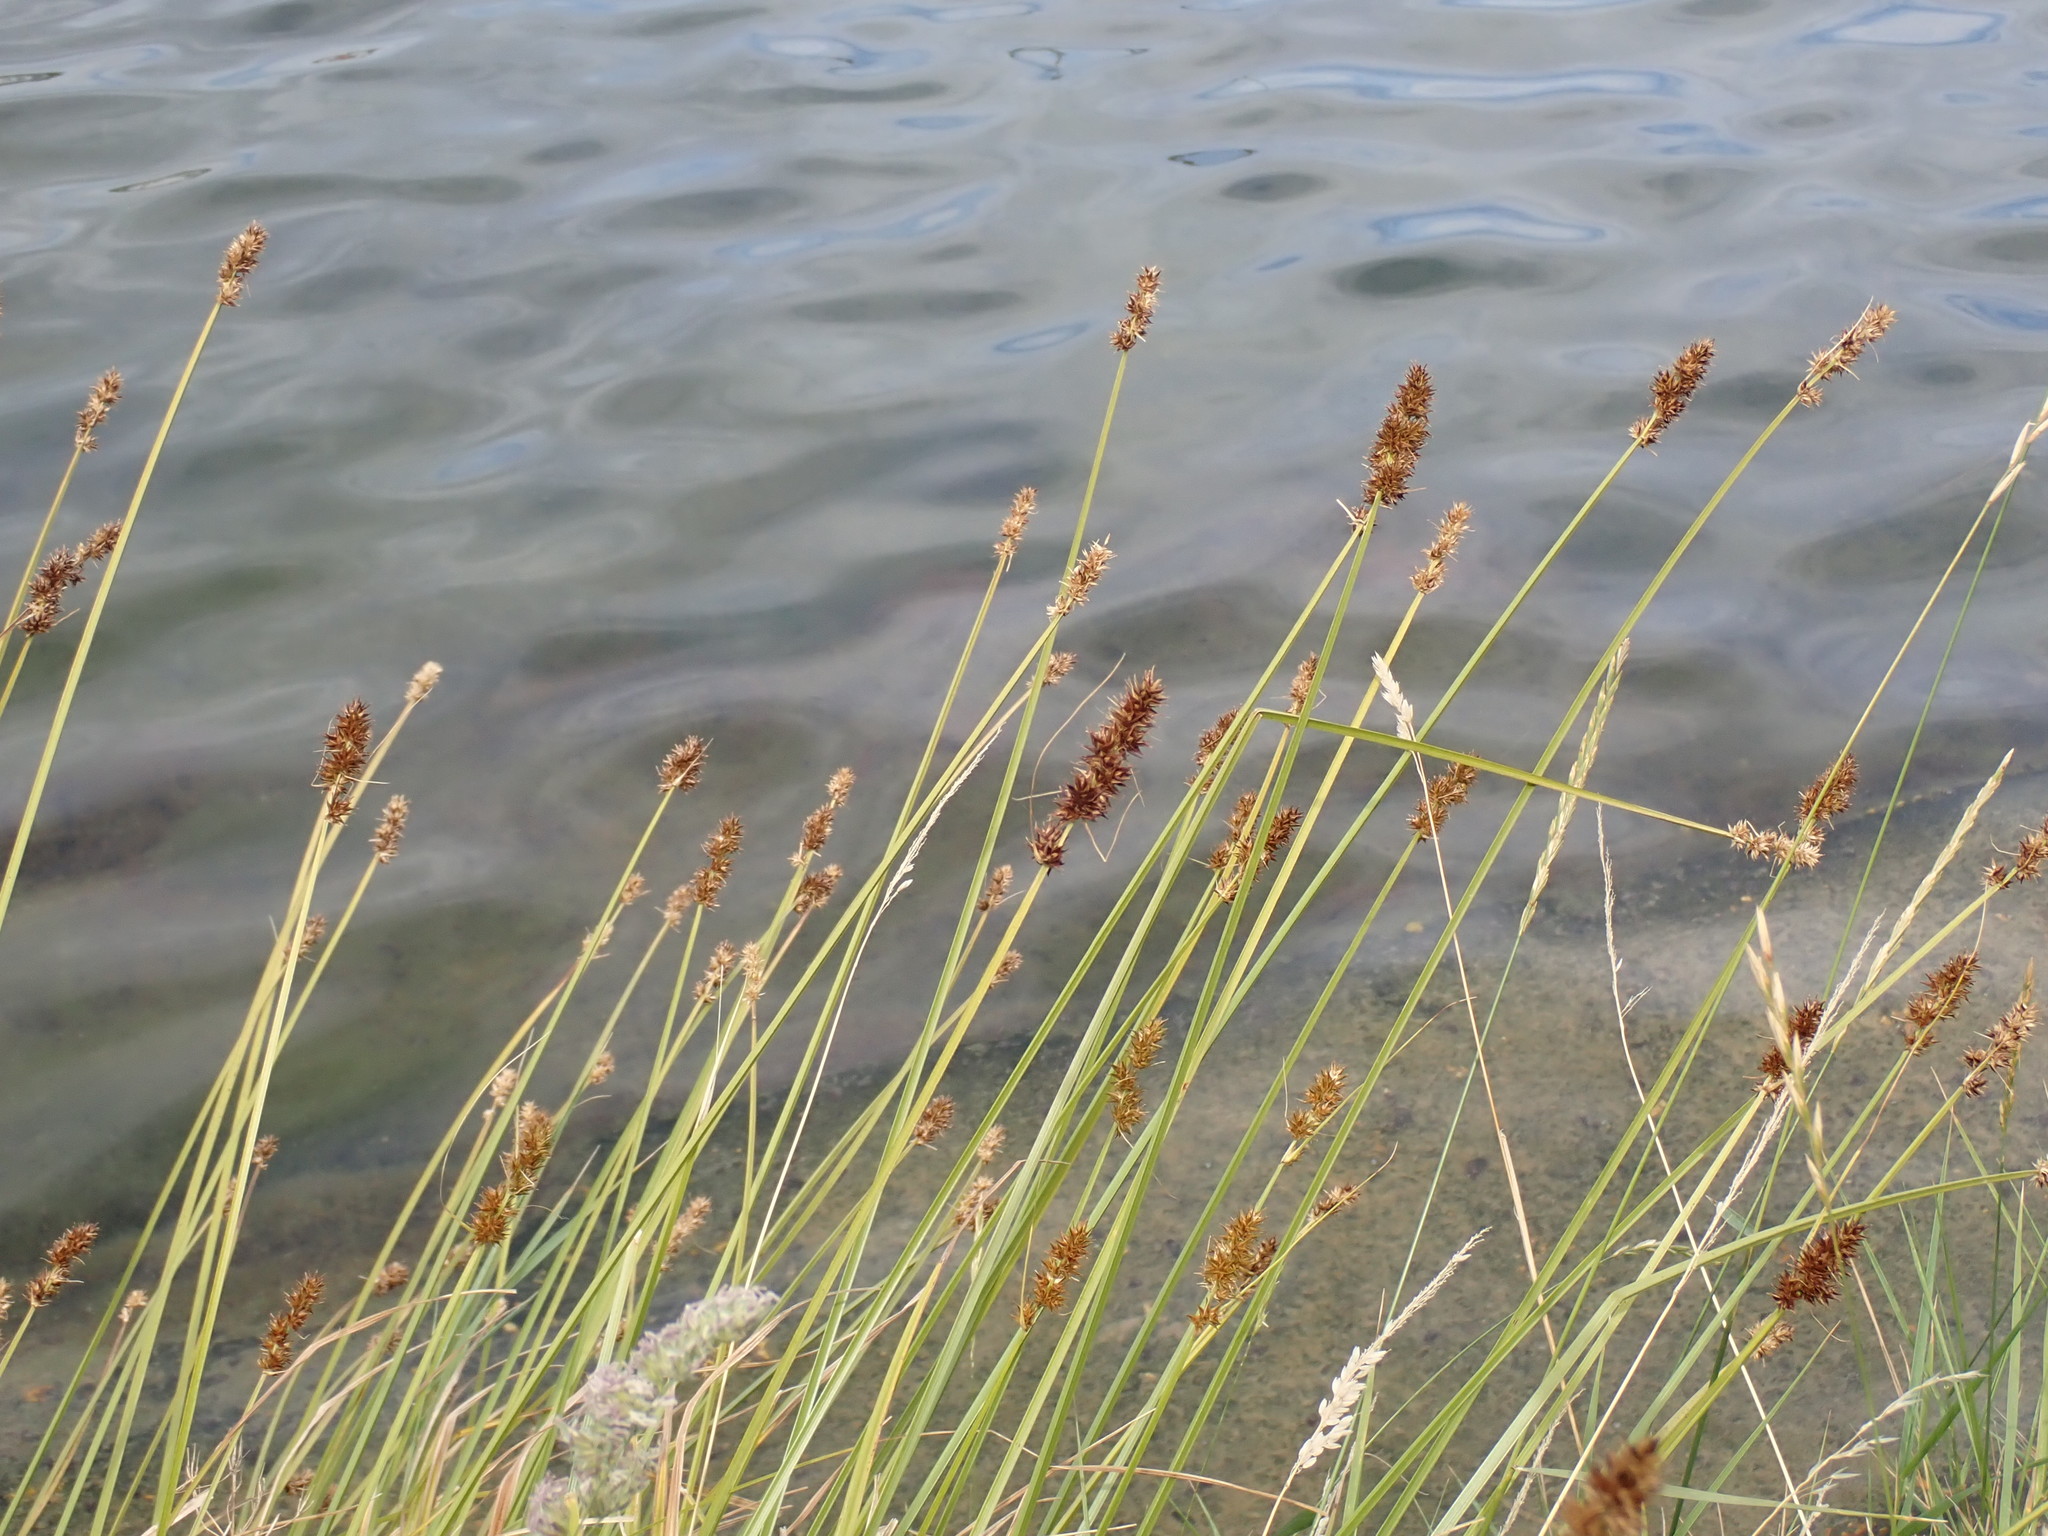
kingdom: Plantae
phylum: Tracheophyta
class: Liliopsida
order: Poales
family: Cyperaceae
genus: Carex
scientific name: Carex otrubae
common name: False fox-sedge
